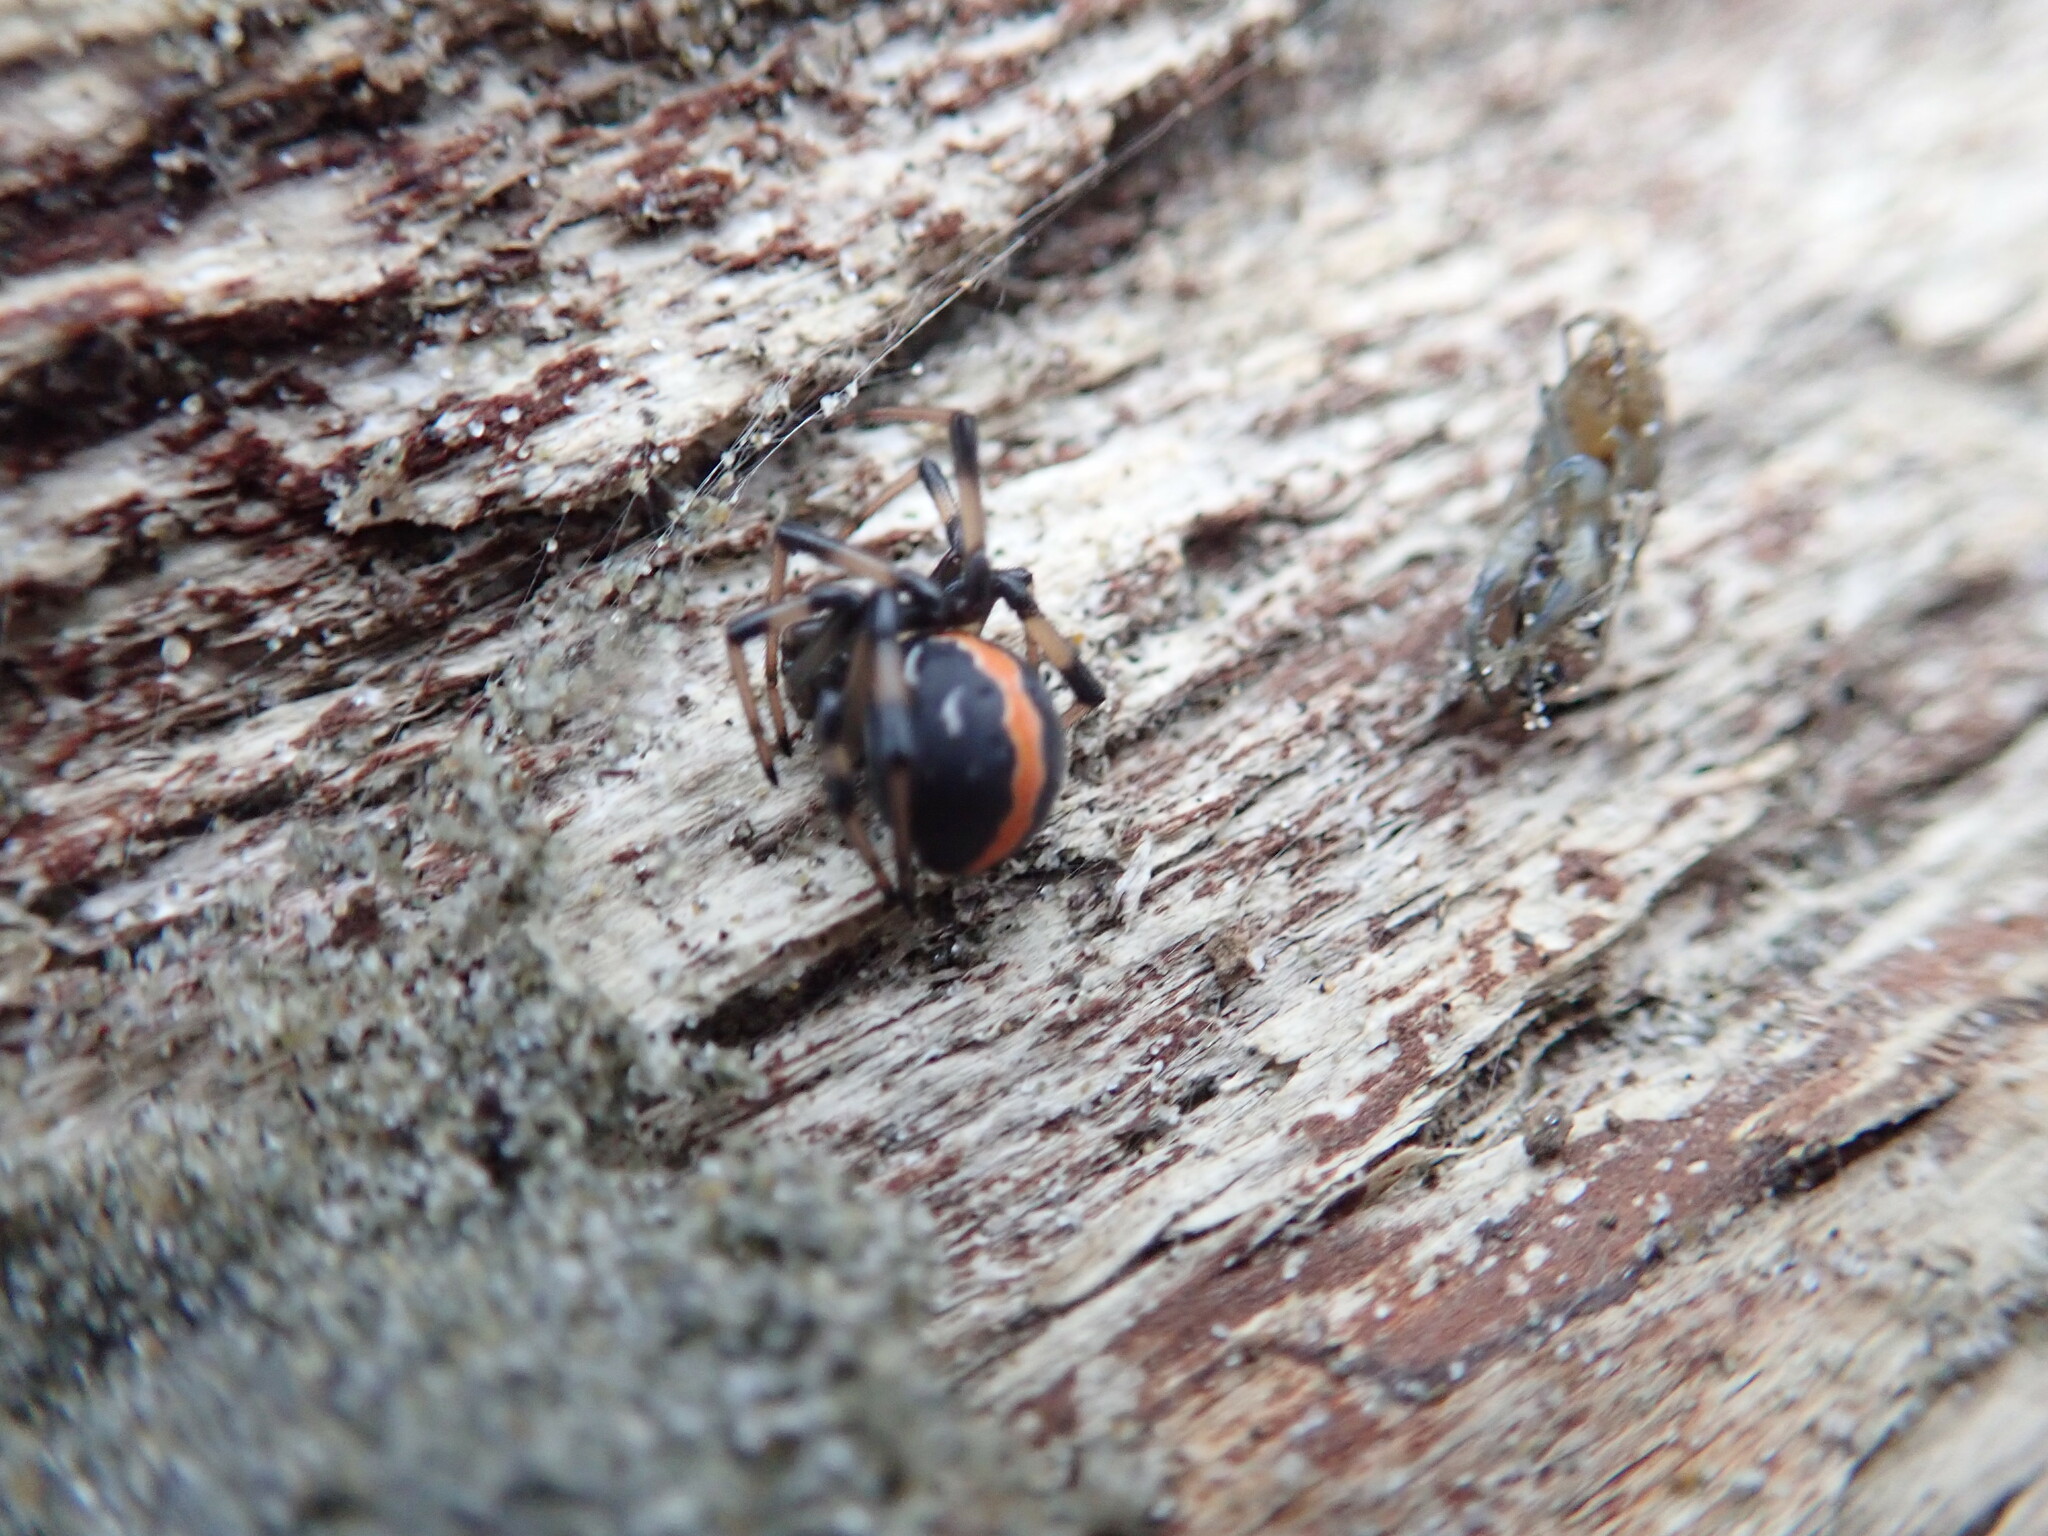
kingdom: Animalia
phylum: Arthropoda
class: Arachnida
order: Araneae
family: Theridiidae
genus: Latrodectus
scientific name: Latrodectus katipo
